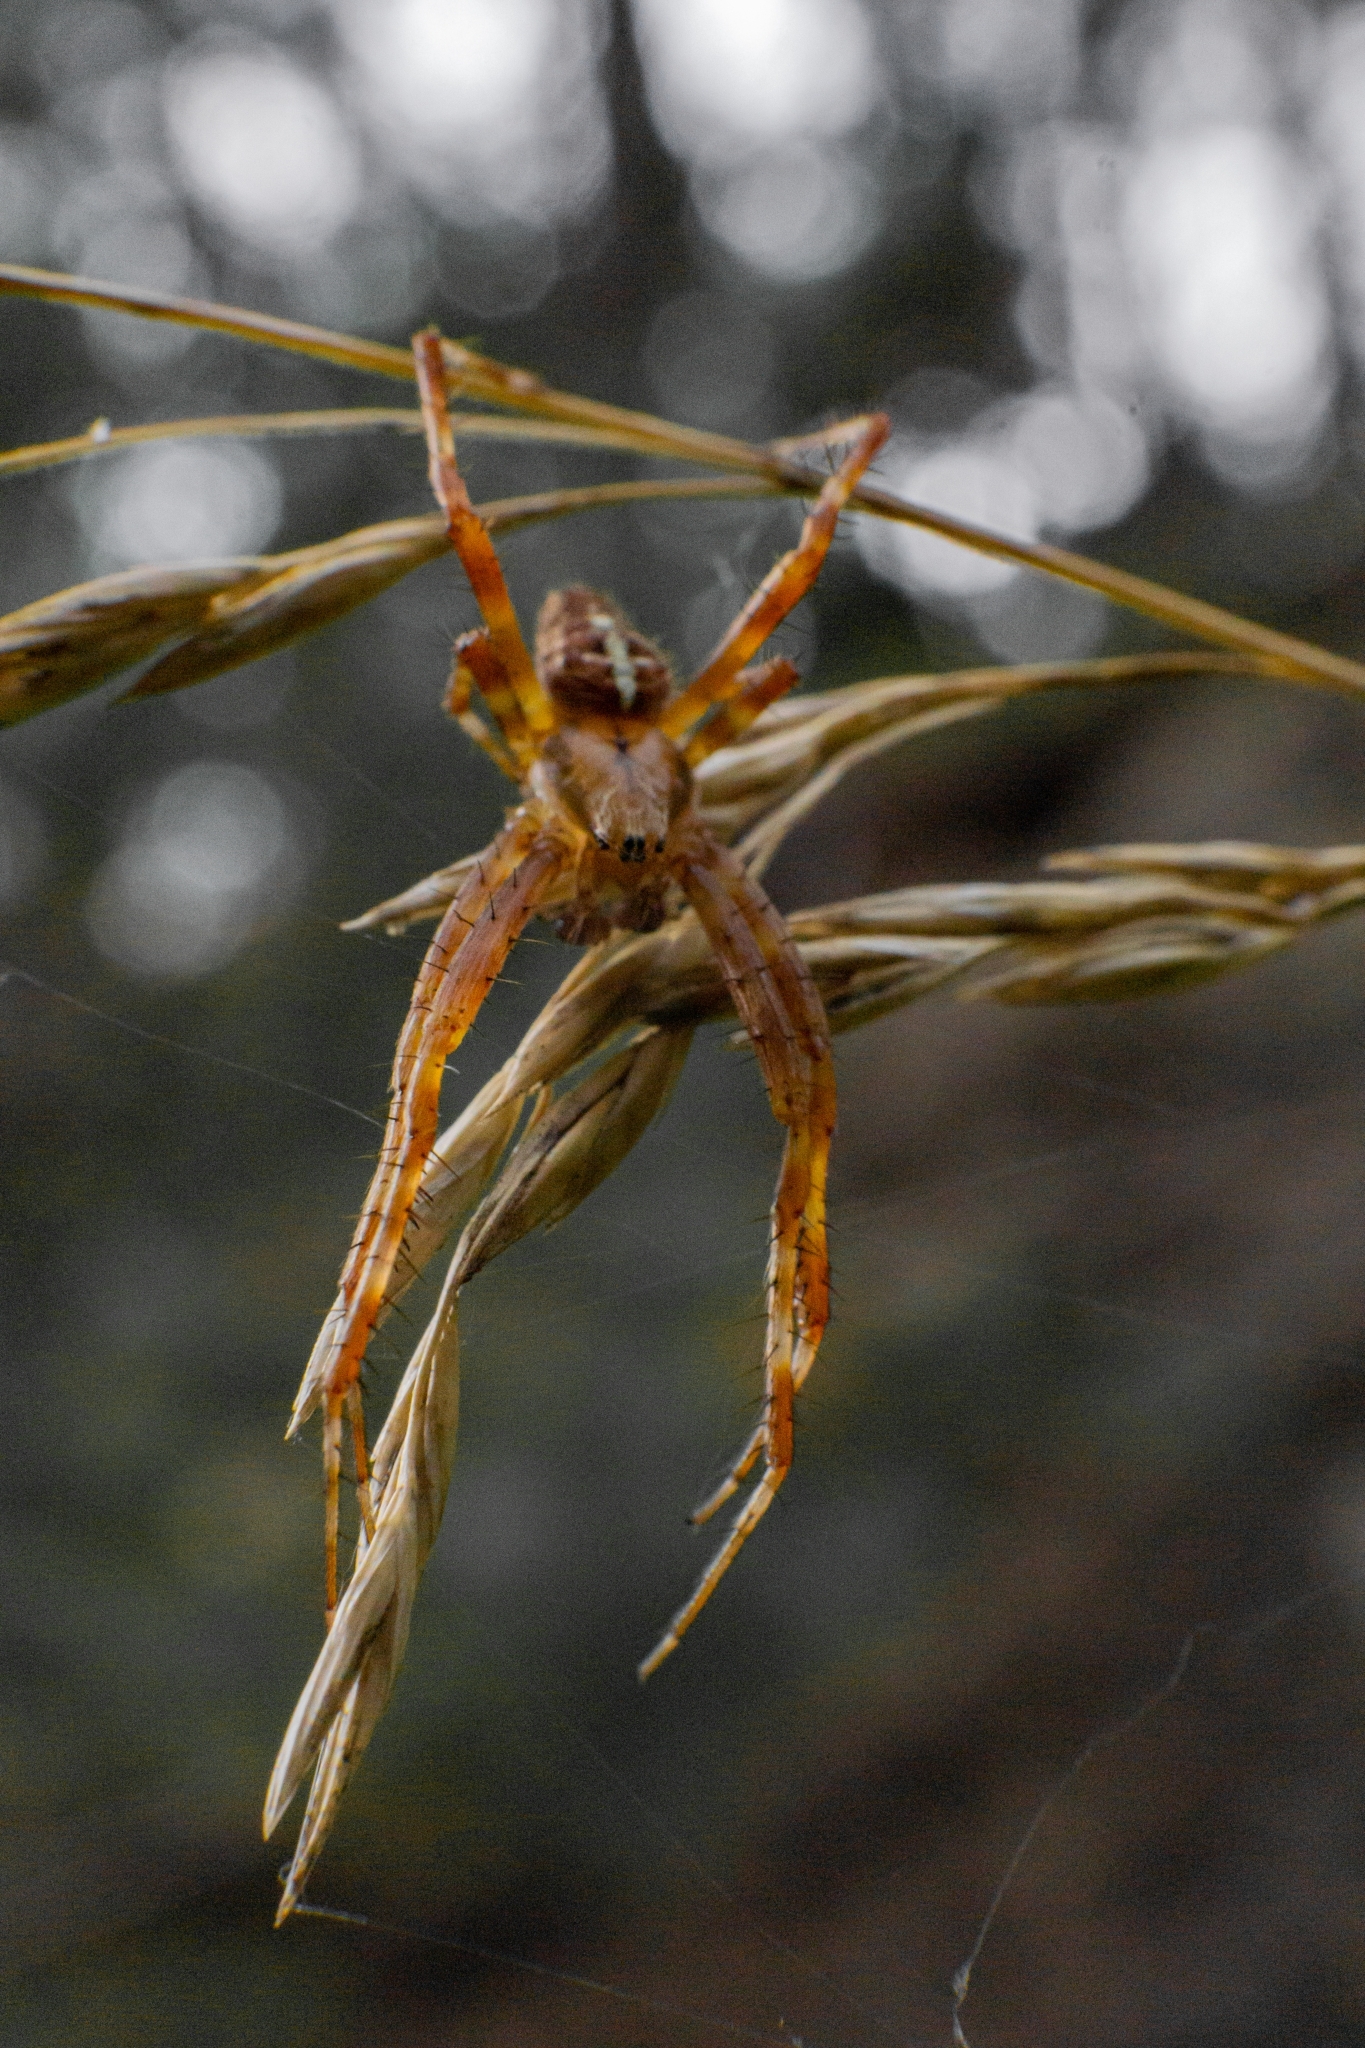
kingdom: Animalia
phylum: Arthropoda
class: Arachnida
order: Araneae
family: Araneidae
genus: Araneus
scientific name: Araneus diadematus
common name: Cross orbweaver
